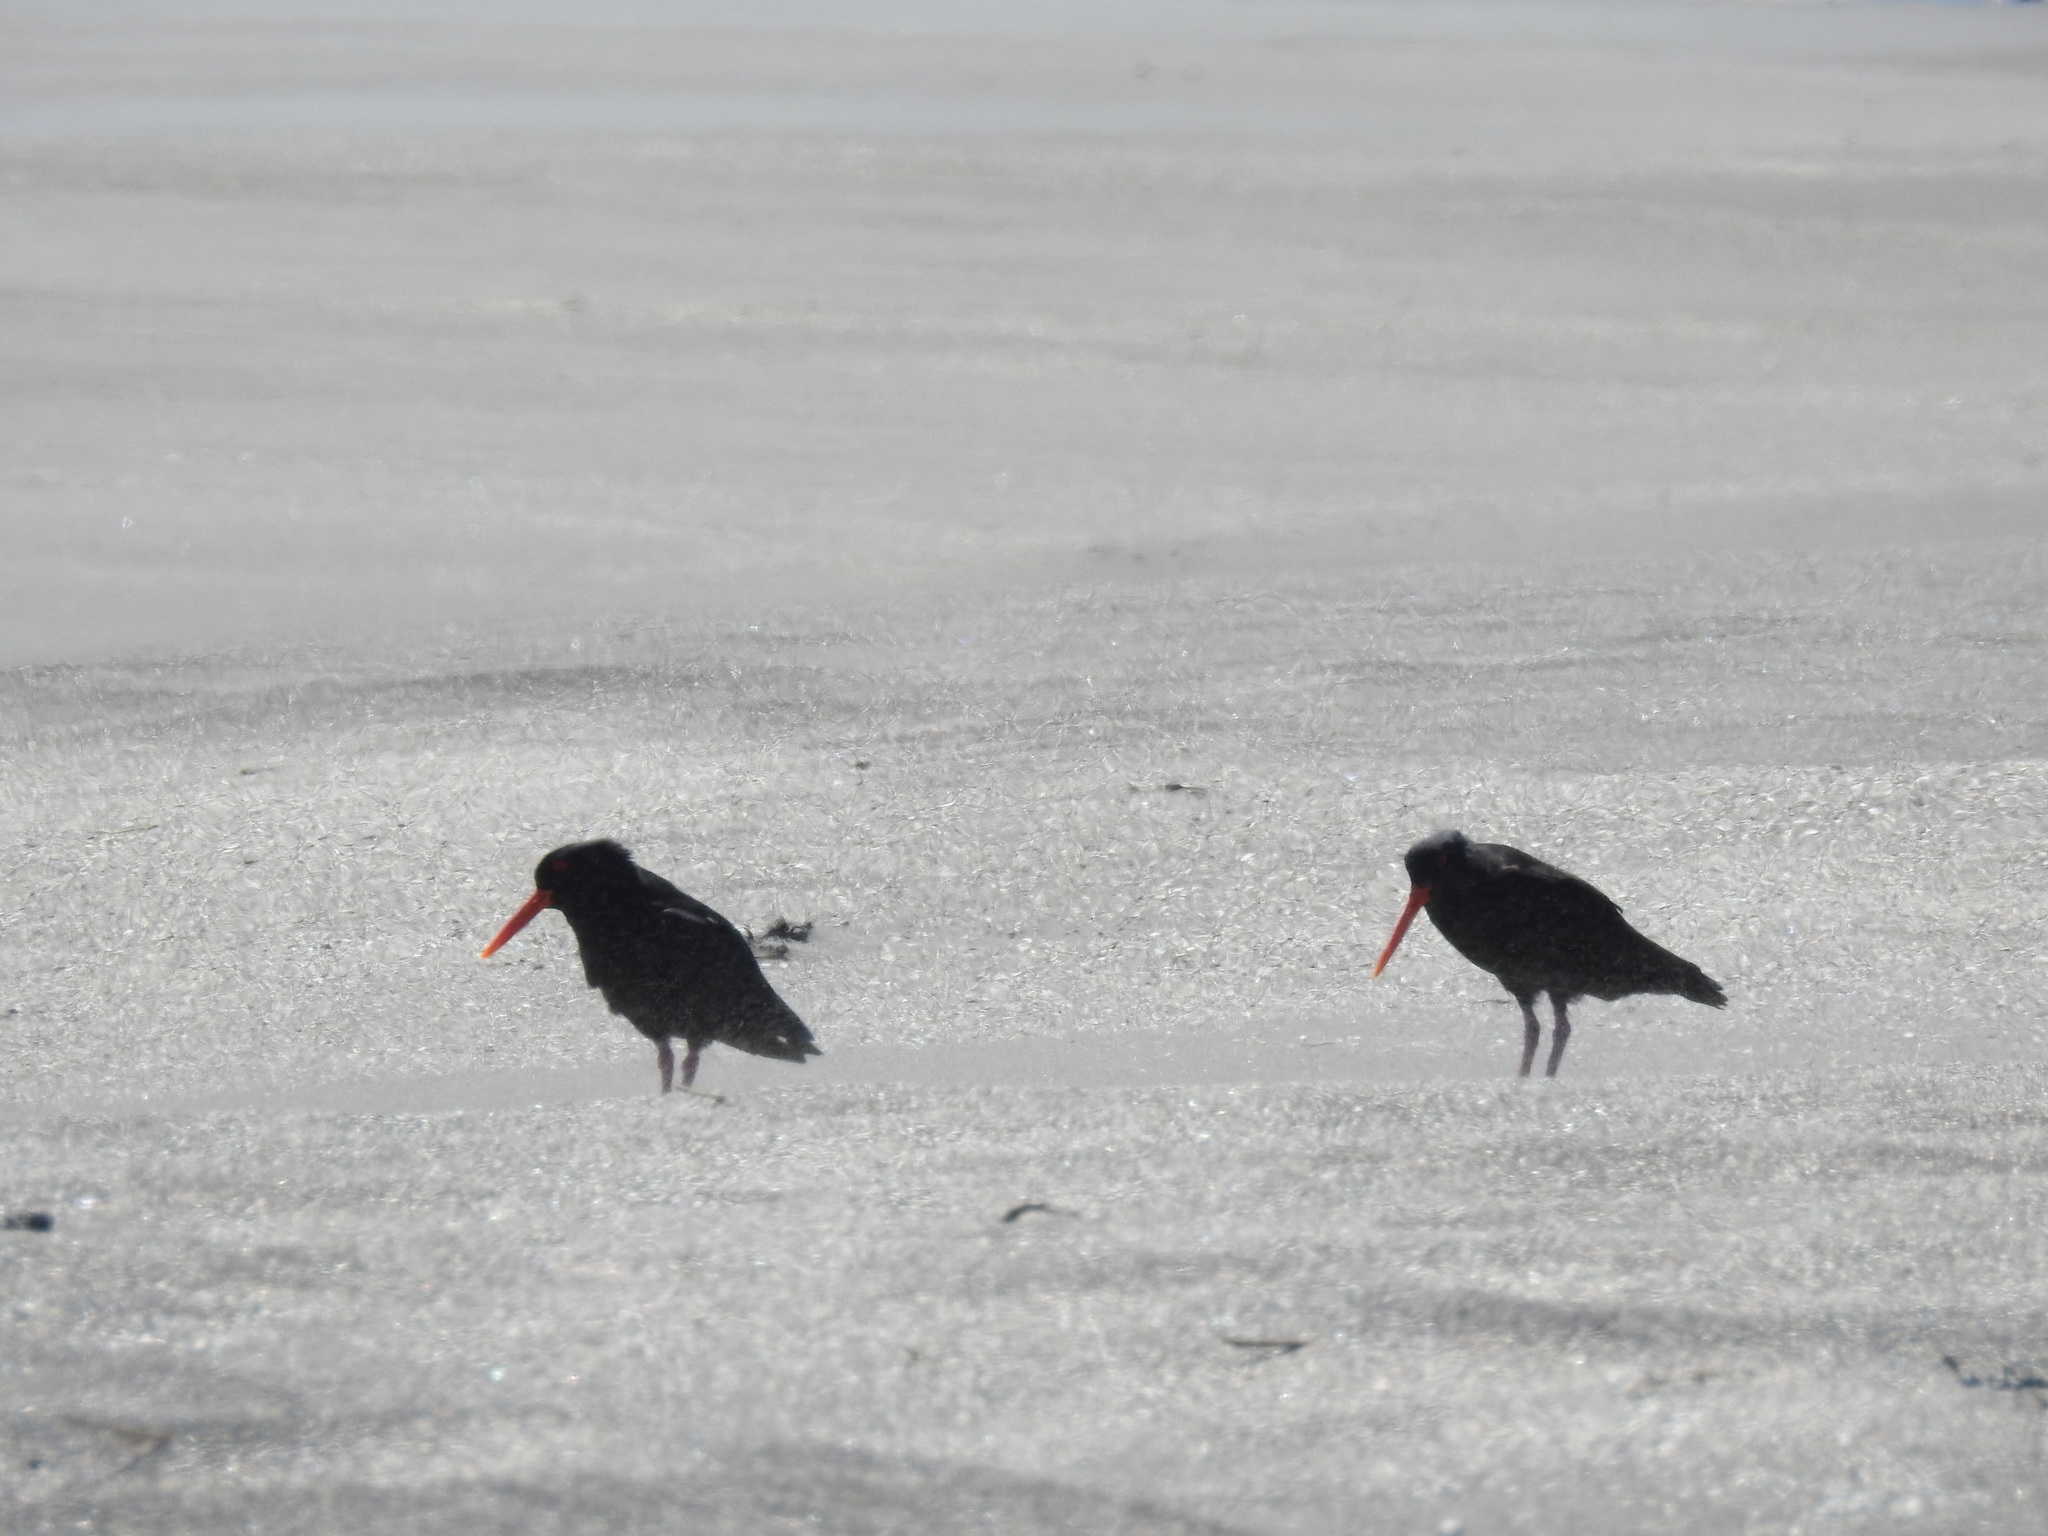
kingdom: Animalia
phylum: Chordata
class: Aves
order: Charadriiformes
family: Haematopodidae
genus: Haematopus
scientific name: Haematopus unicolor
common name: Variable oystercatcher
